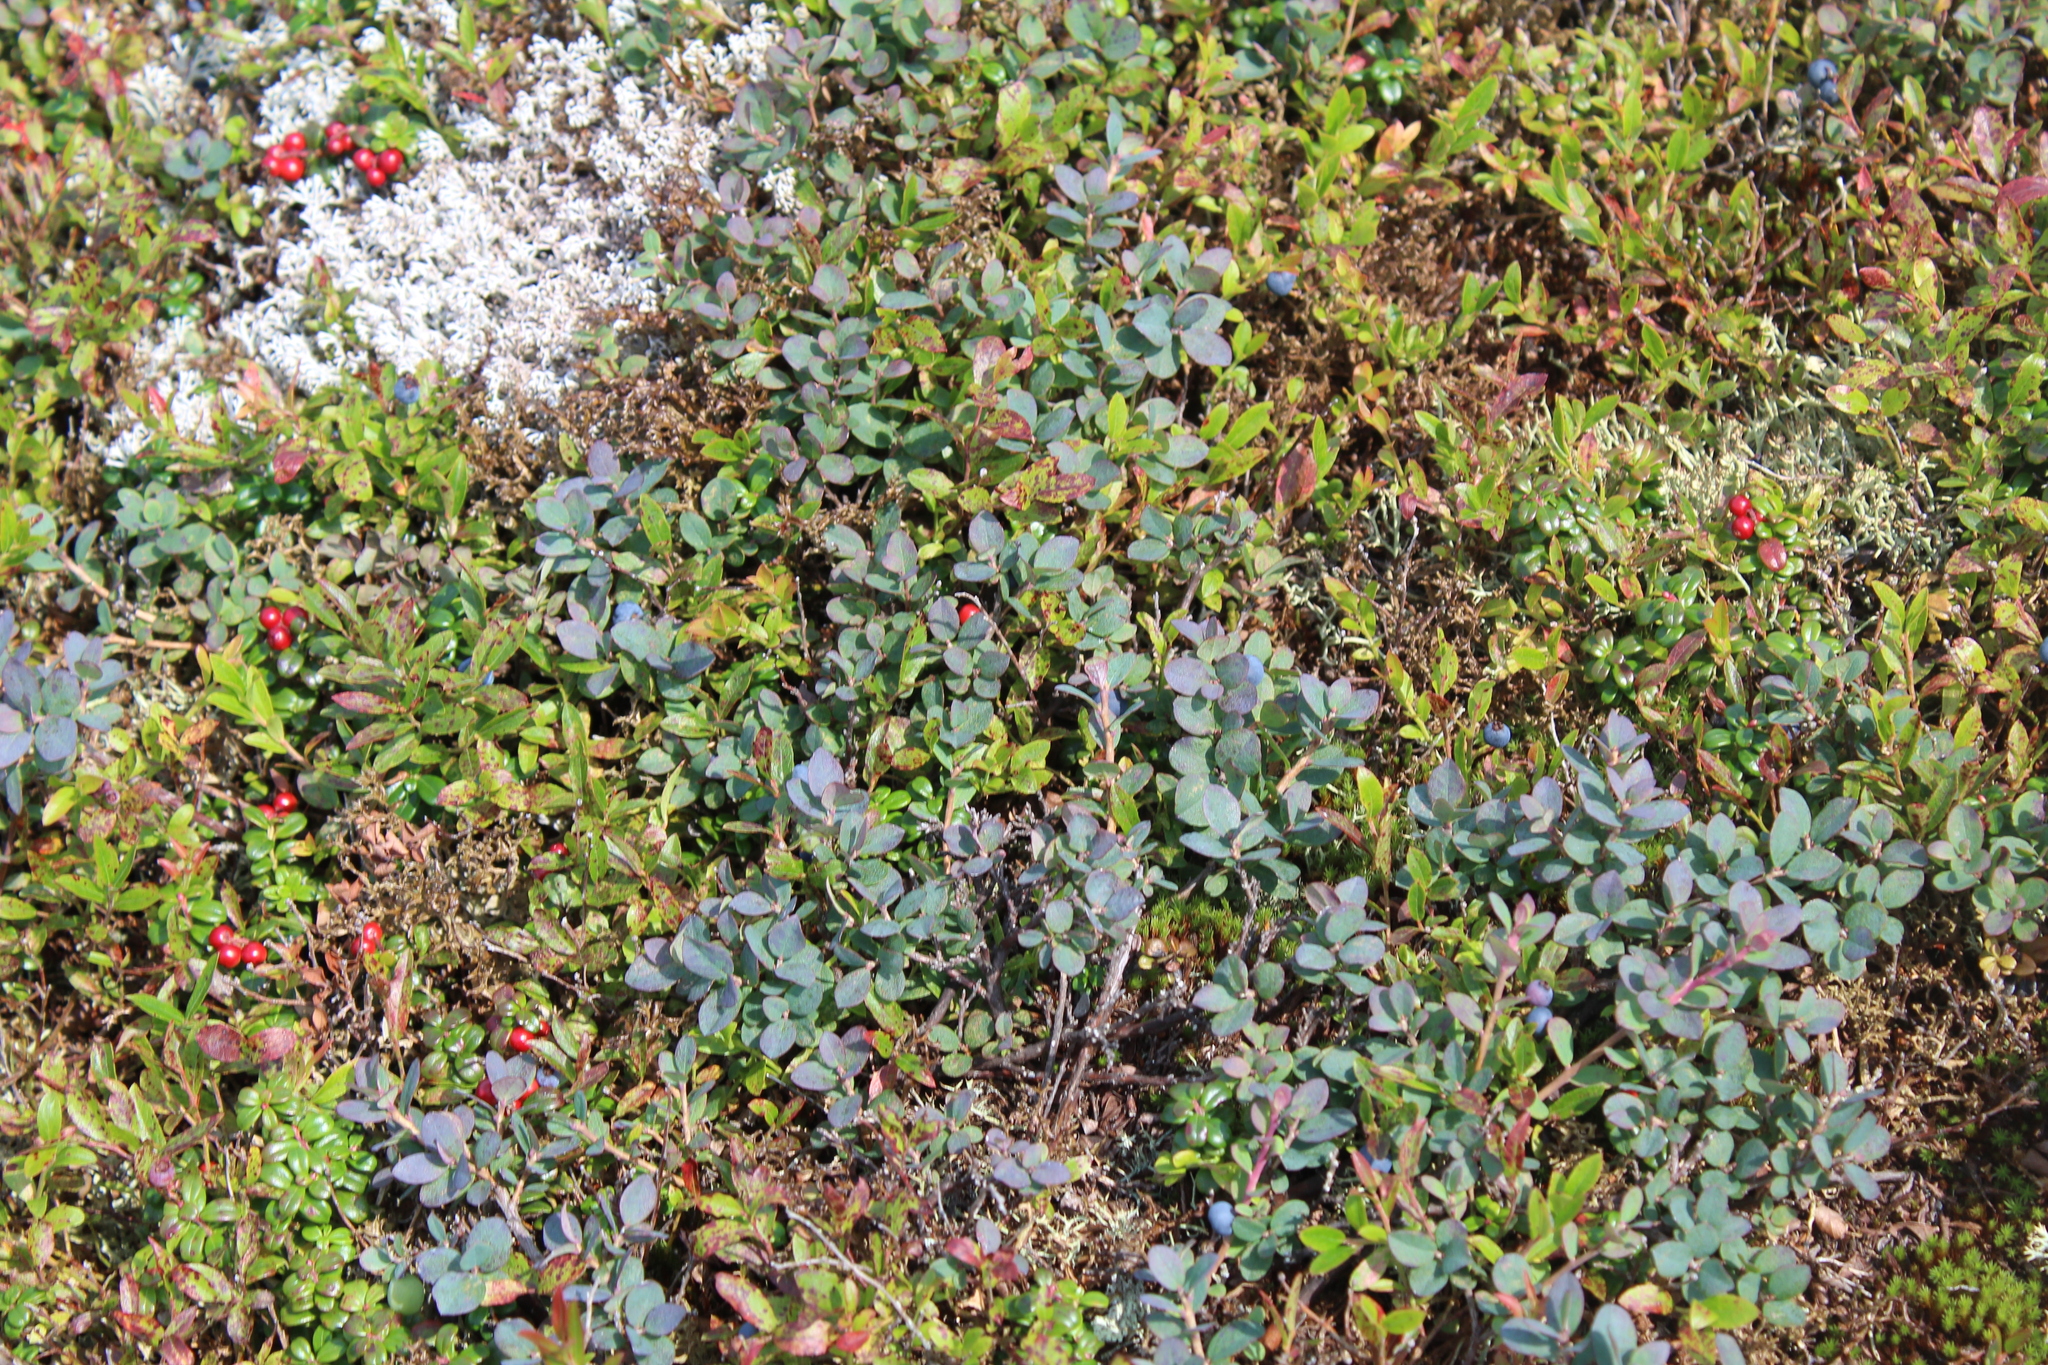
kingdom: Plantae
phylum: Tracheophyta
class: Magnoliopsida
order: Ericales
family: Ericaceae
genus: Vaccinium
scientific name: Vaccinium uliginosum
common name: Bog bilberry
